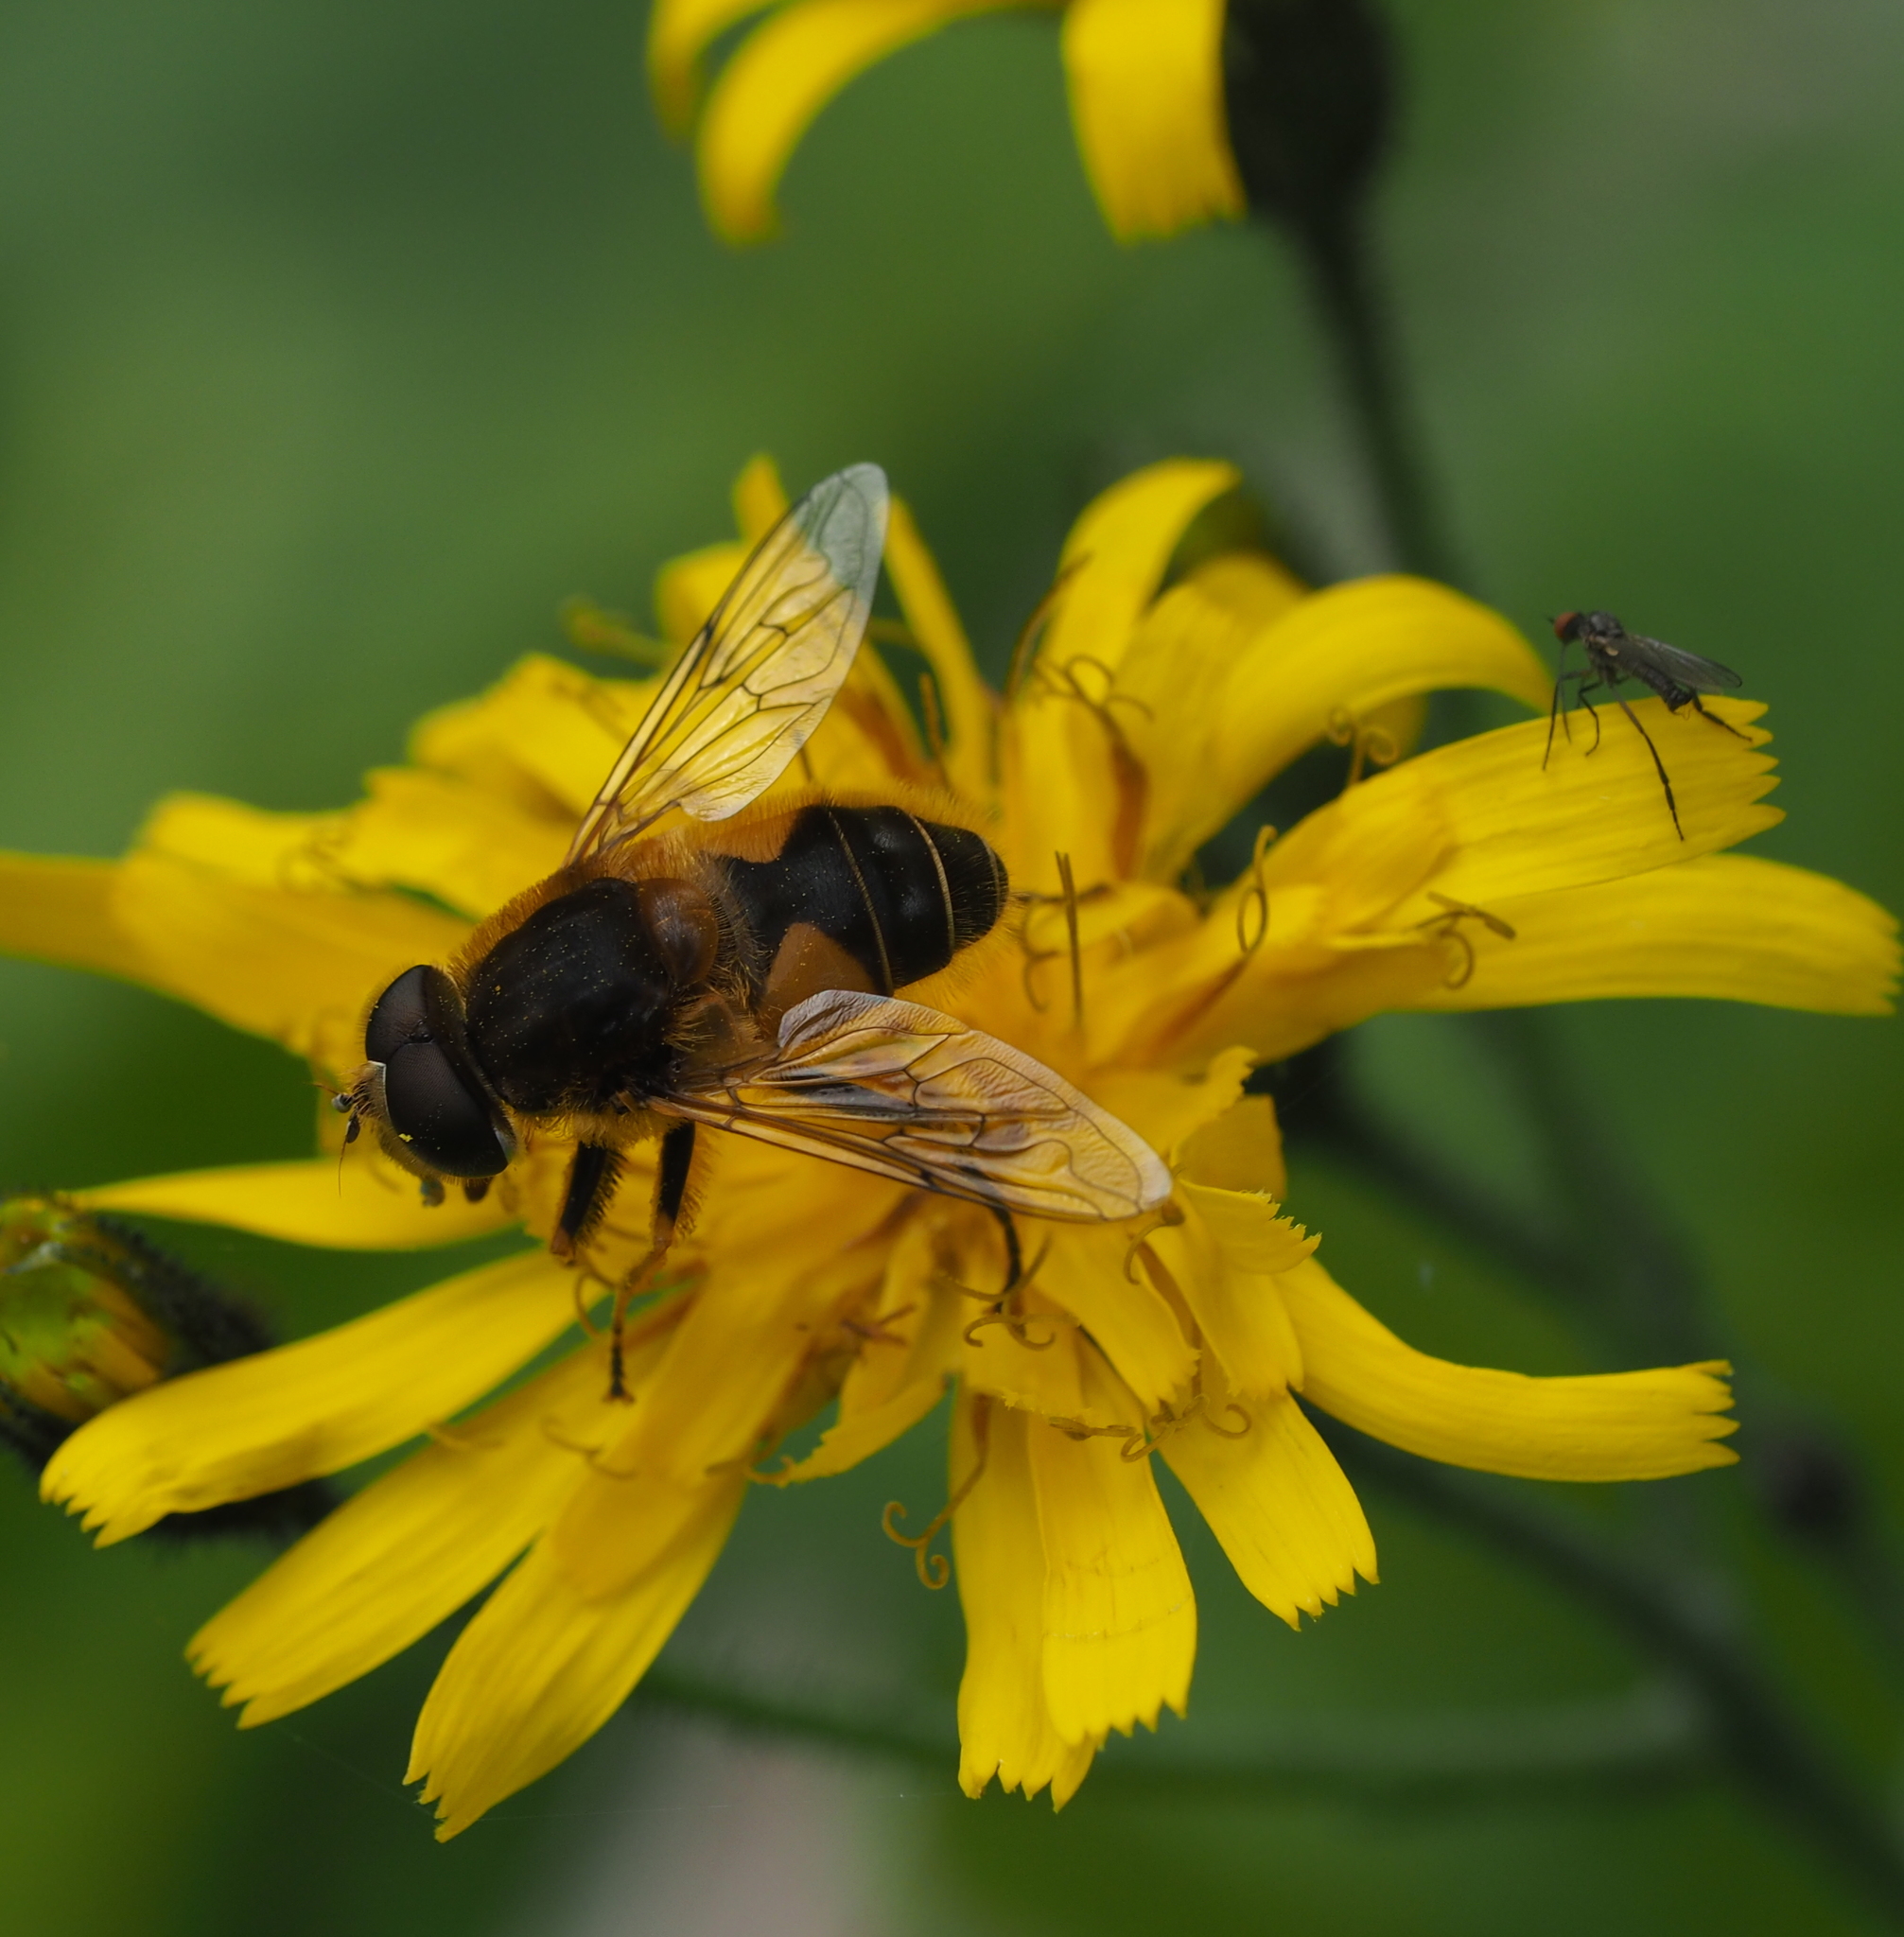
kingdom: Animalia
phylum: Arthropoda
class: Insecta
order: Diptera
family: Syrphidae
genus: Eristalis
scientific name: Eristalis jugorum
